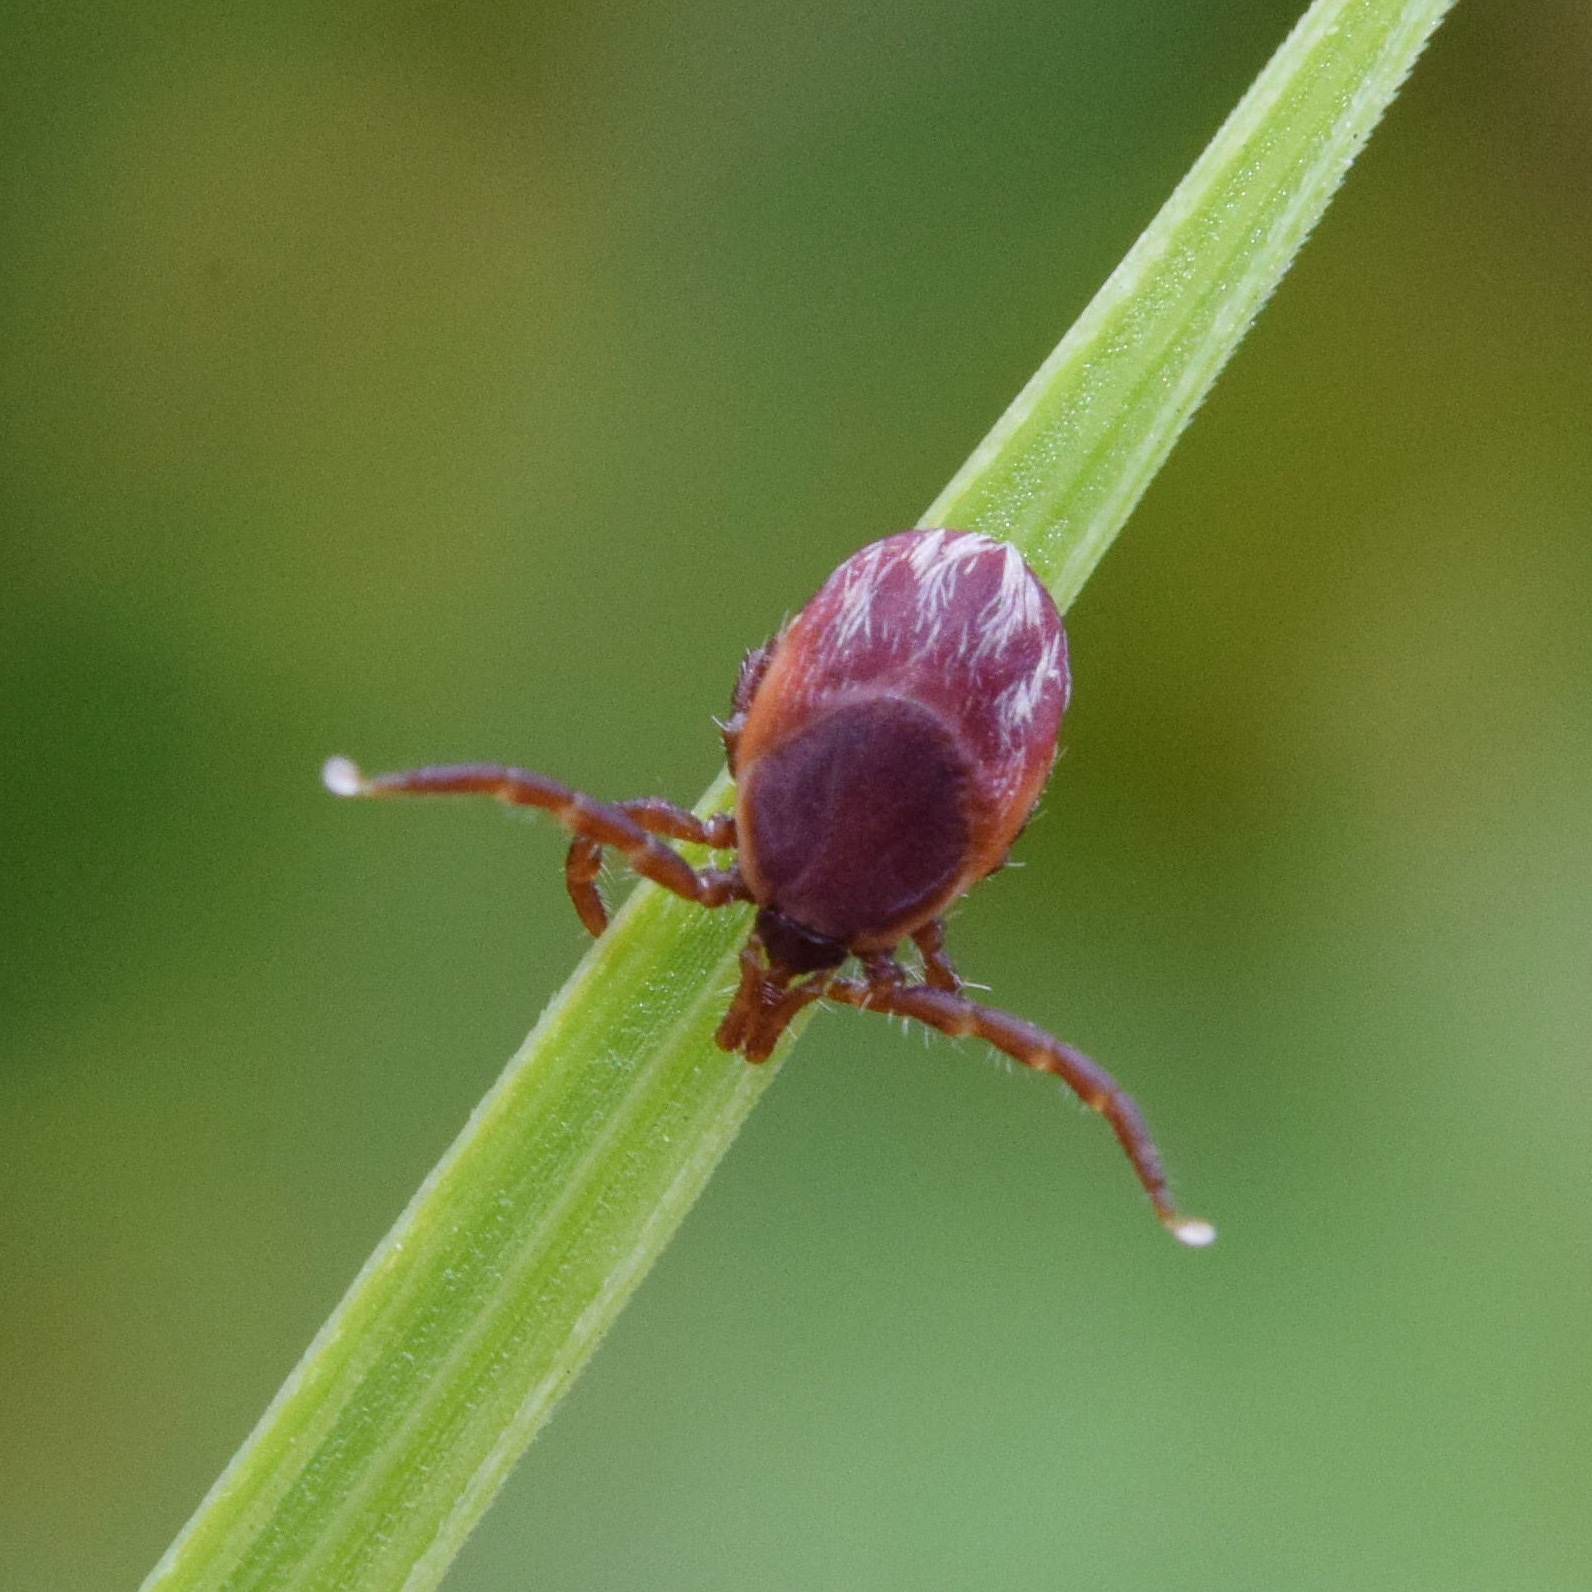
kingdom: Animalia
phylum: Arthropoda
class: Arachnida
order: Ixodida
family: Ixodidae
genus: Ixodes
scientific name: Ixodes pilosus
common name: Bush tick
